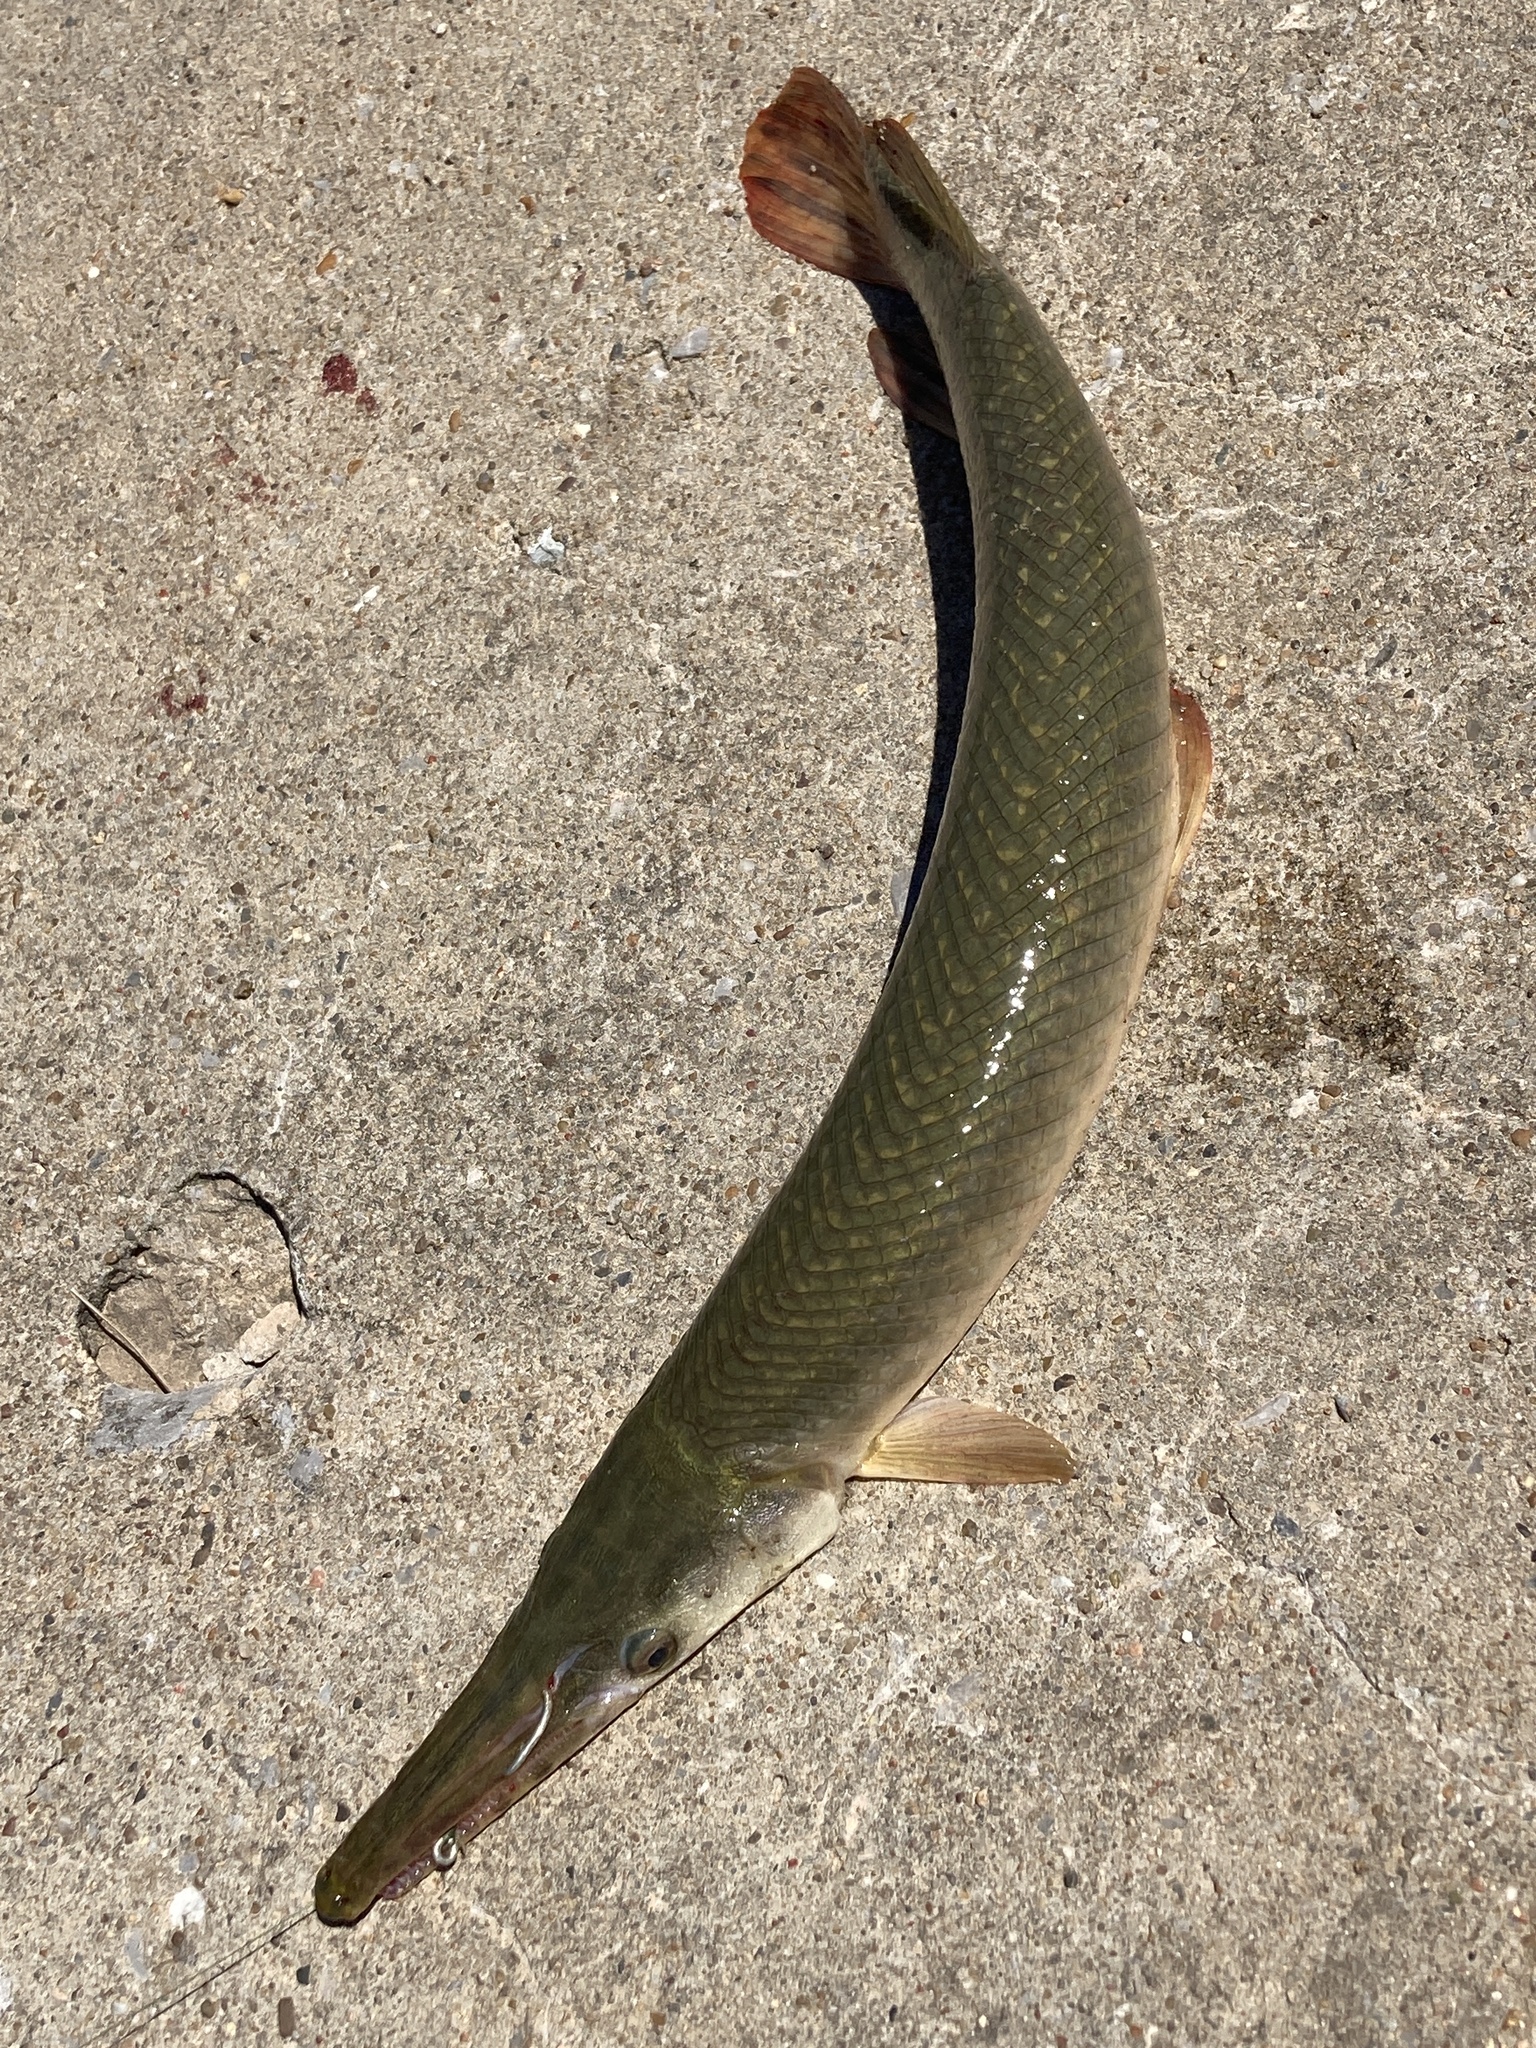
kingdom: Animalia
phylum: Chordata
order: Lepisosteiformes
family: Lepisosteidae
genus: Lepisosteus
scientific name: Lepisosteus oculatus
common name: Spotted gar
